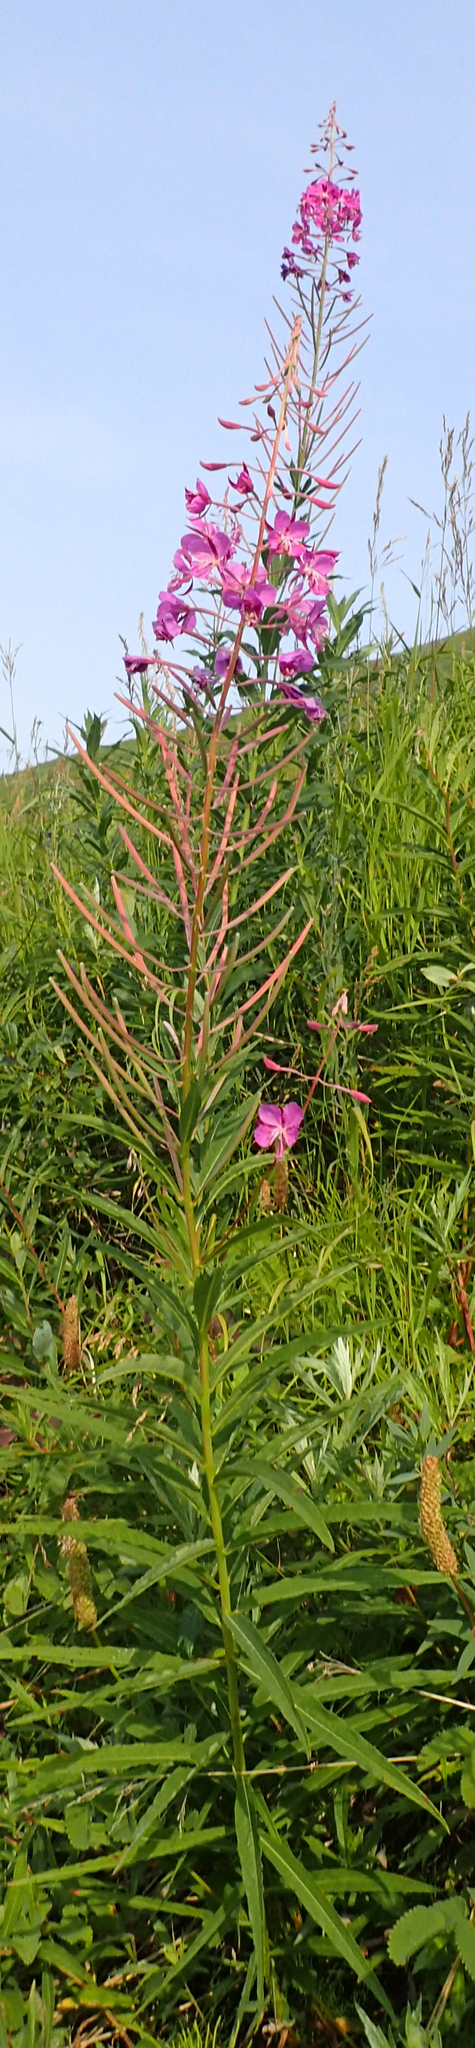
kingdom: Plantae
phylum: Tracheophyta
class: Magnoliopsida
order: Myrtales
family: Onagraceae
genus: Chamaenerion
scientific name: Chamaenerion angustifolium
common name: Fireweed
